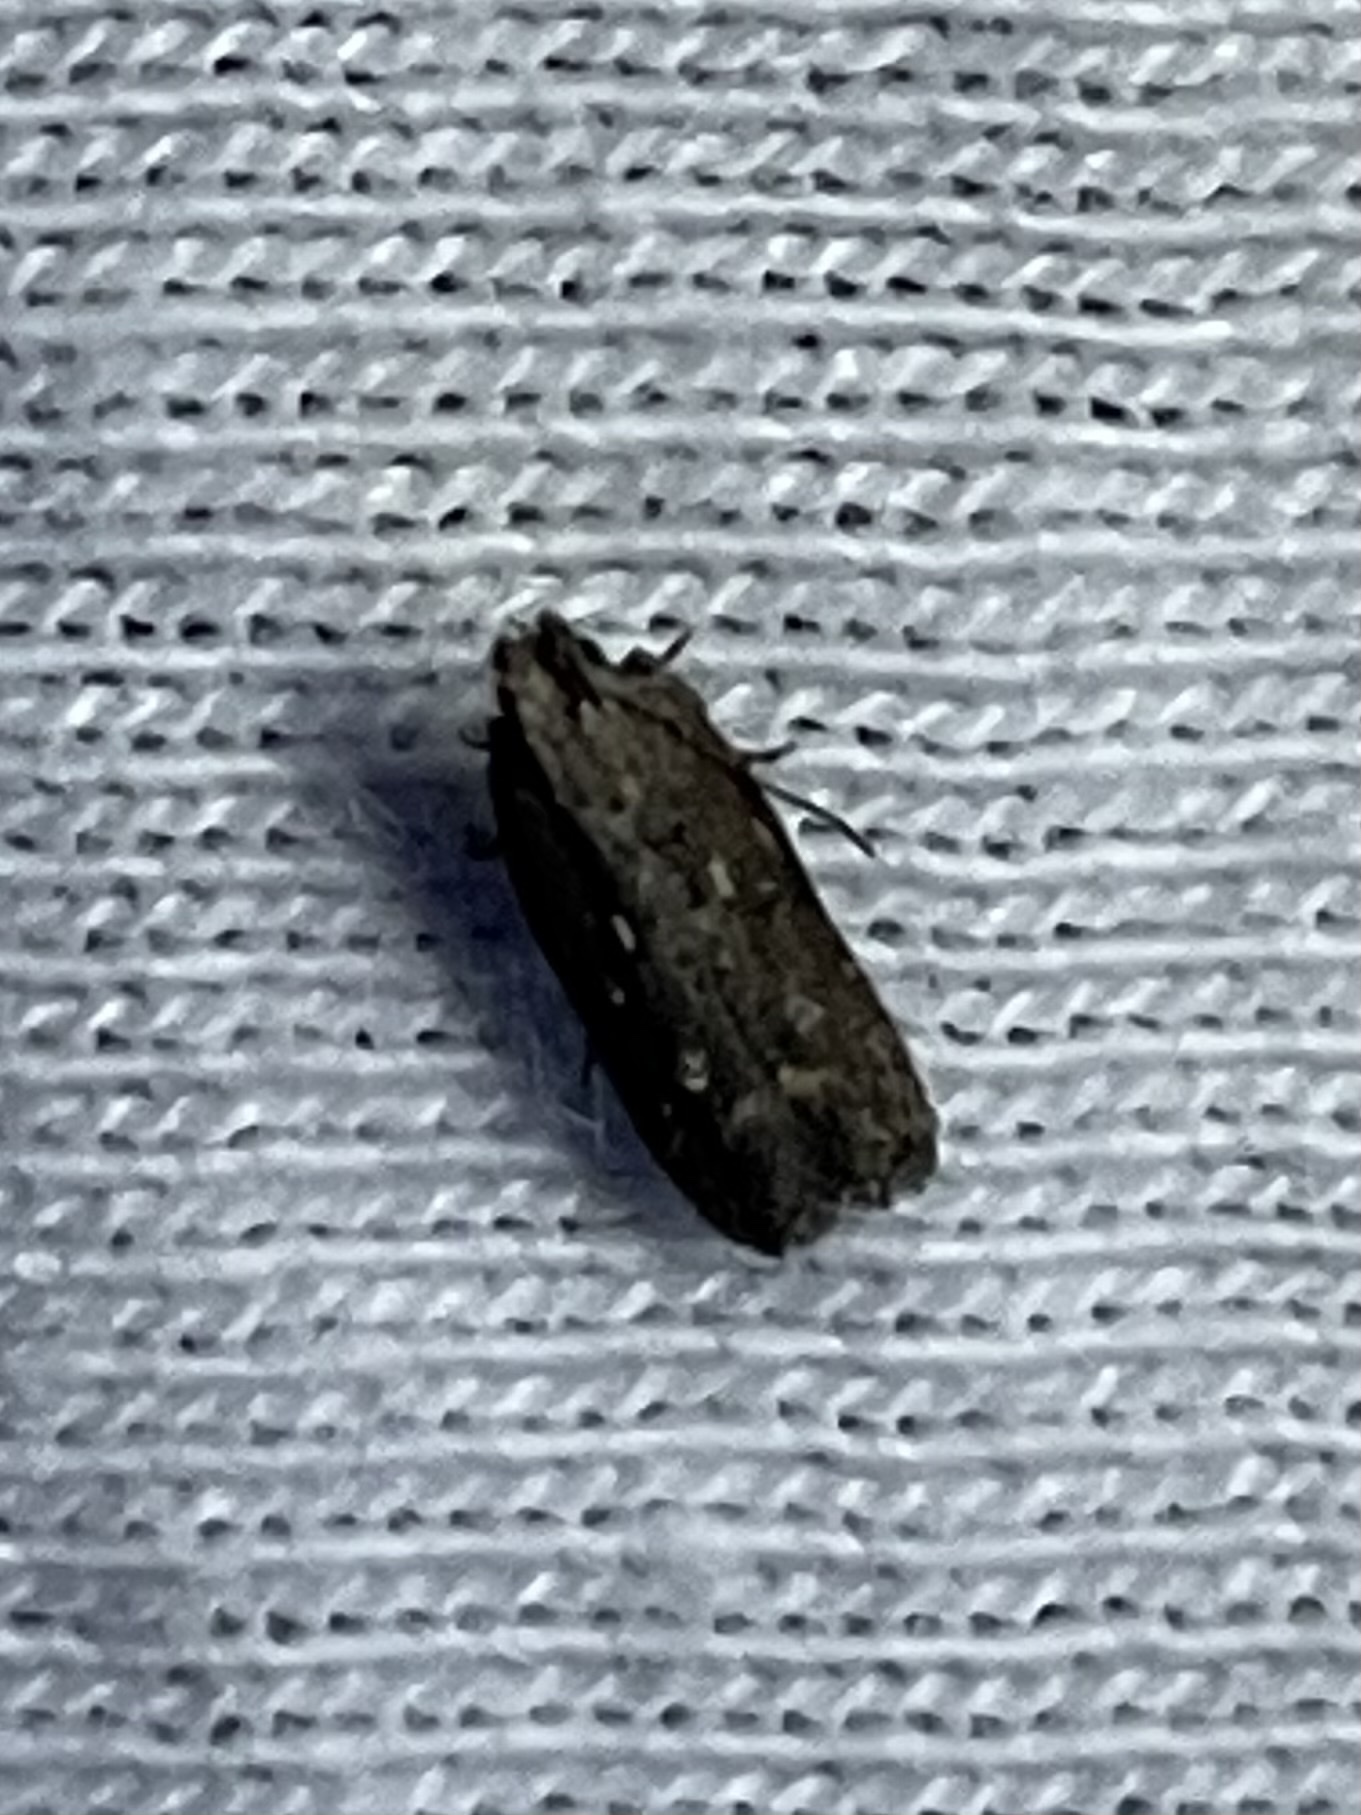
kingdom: Animalia
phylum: Arthropoda
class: Insecta
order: Lepidoptera
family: Gelechiidae
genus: Chionodes
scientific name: Chionodes discoocellella
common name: Eye-ringed chionodes moth
